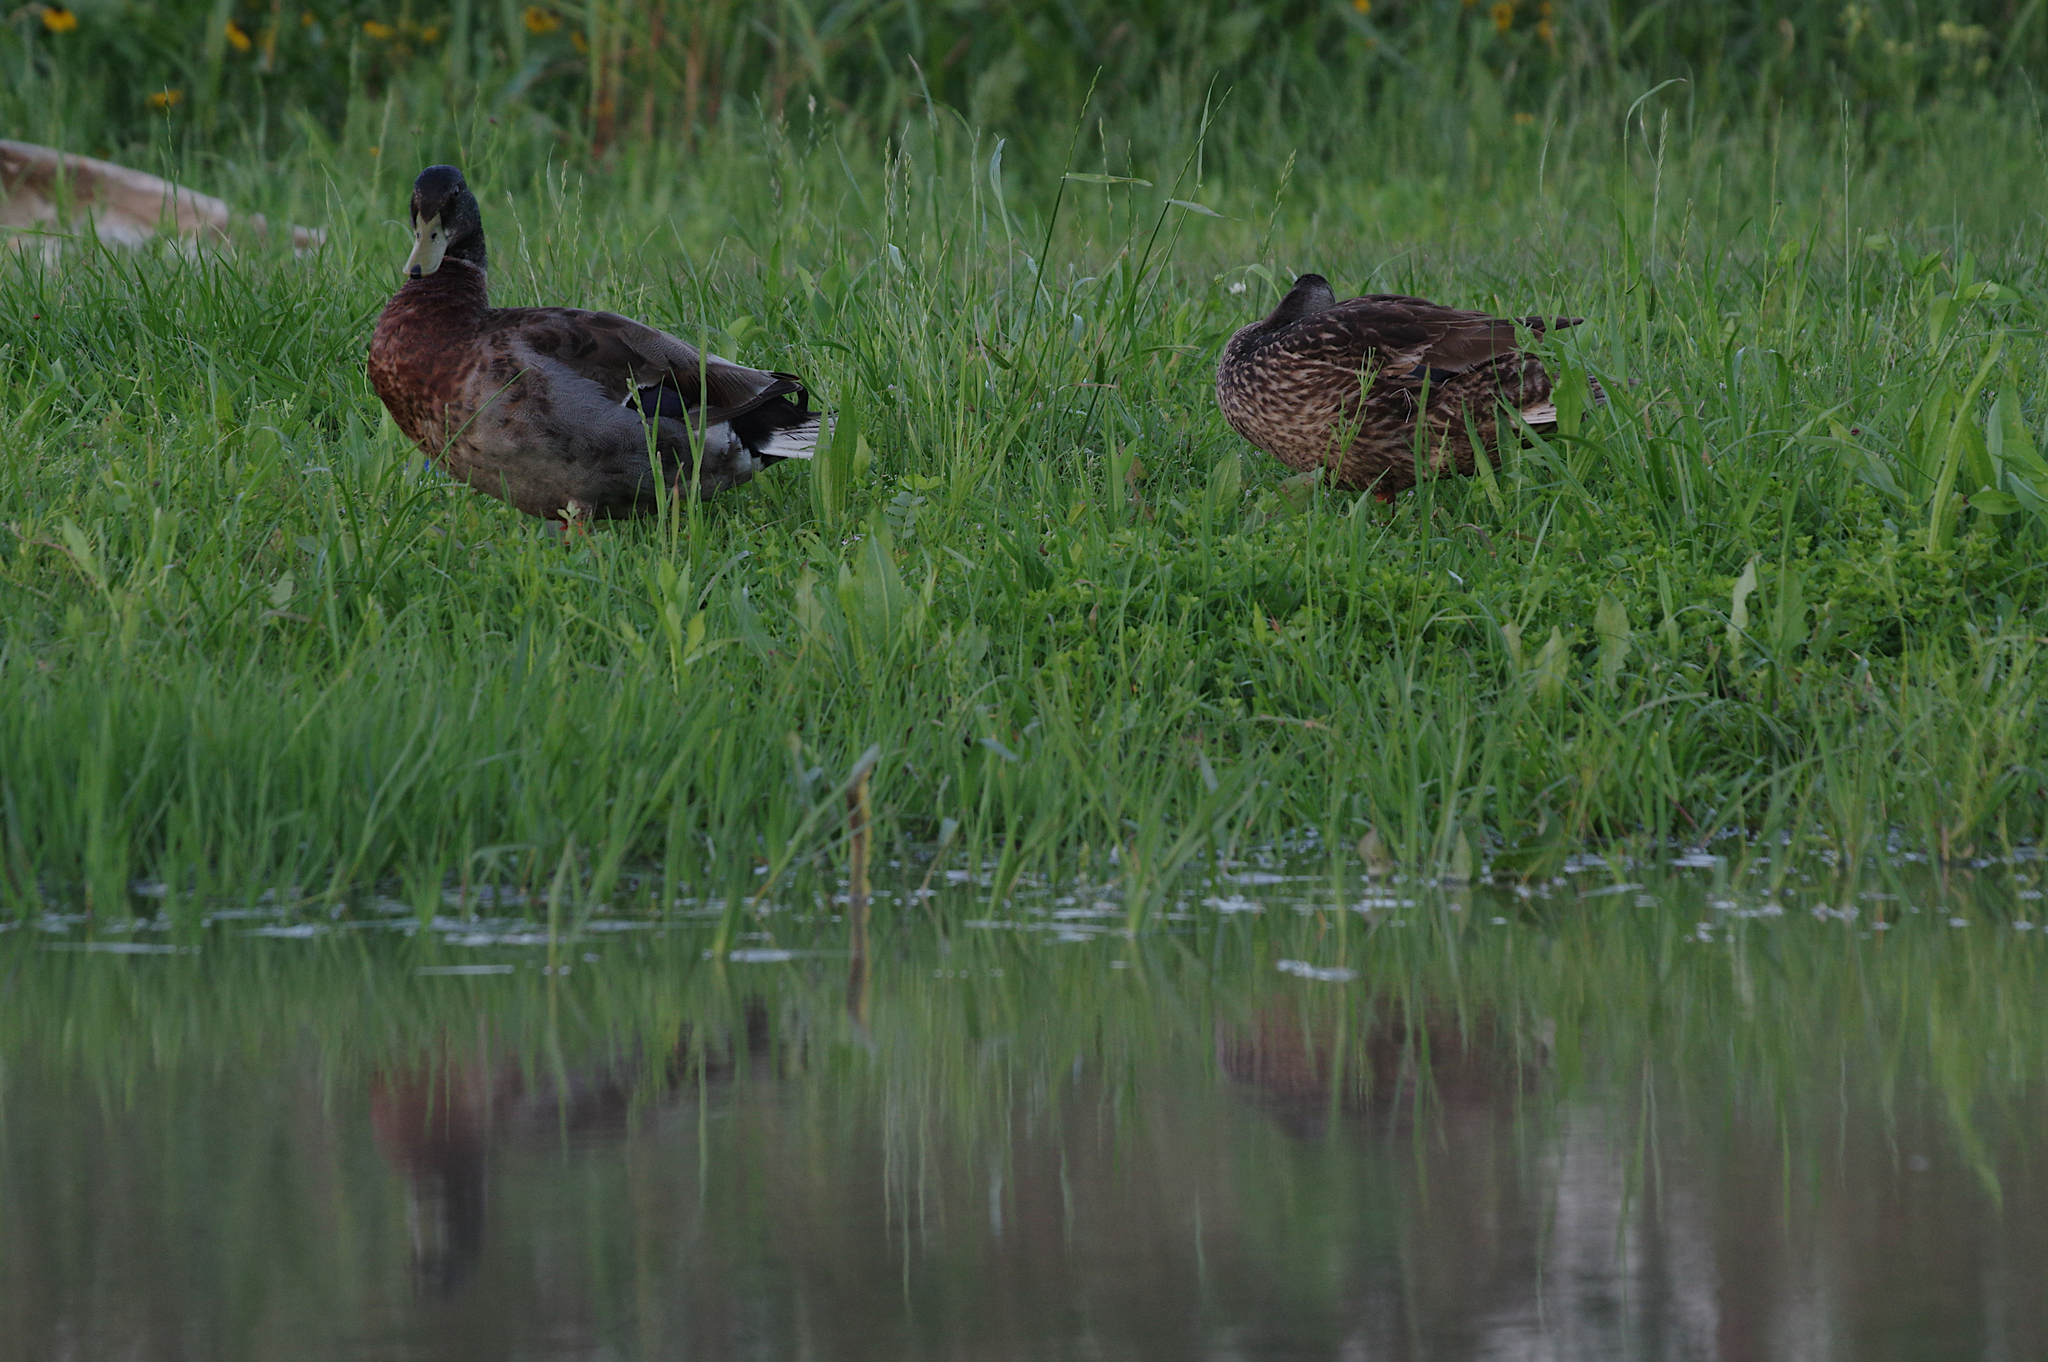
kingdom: Animalia
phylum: Chordata
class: Aves
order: Anseriformes
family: Anatidae
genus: Anas
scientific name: Anas platyrhynchos
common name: Mallard
